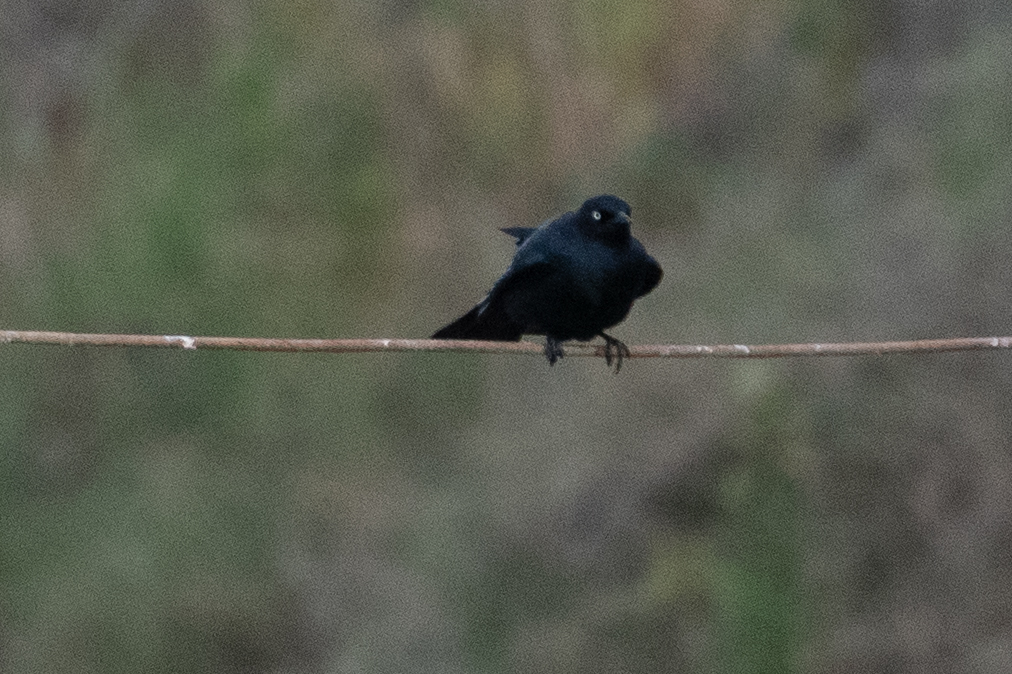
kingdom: Animalia
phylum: Chordata
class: Aves
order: Passeriformes
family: Icteridae
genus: Euphagus
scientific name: Euphagus cyanocephalus
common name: Brewer's blackbird
